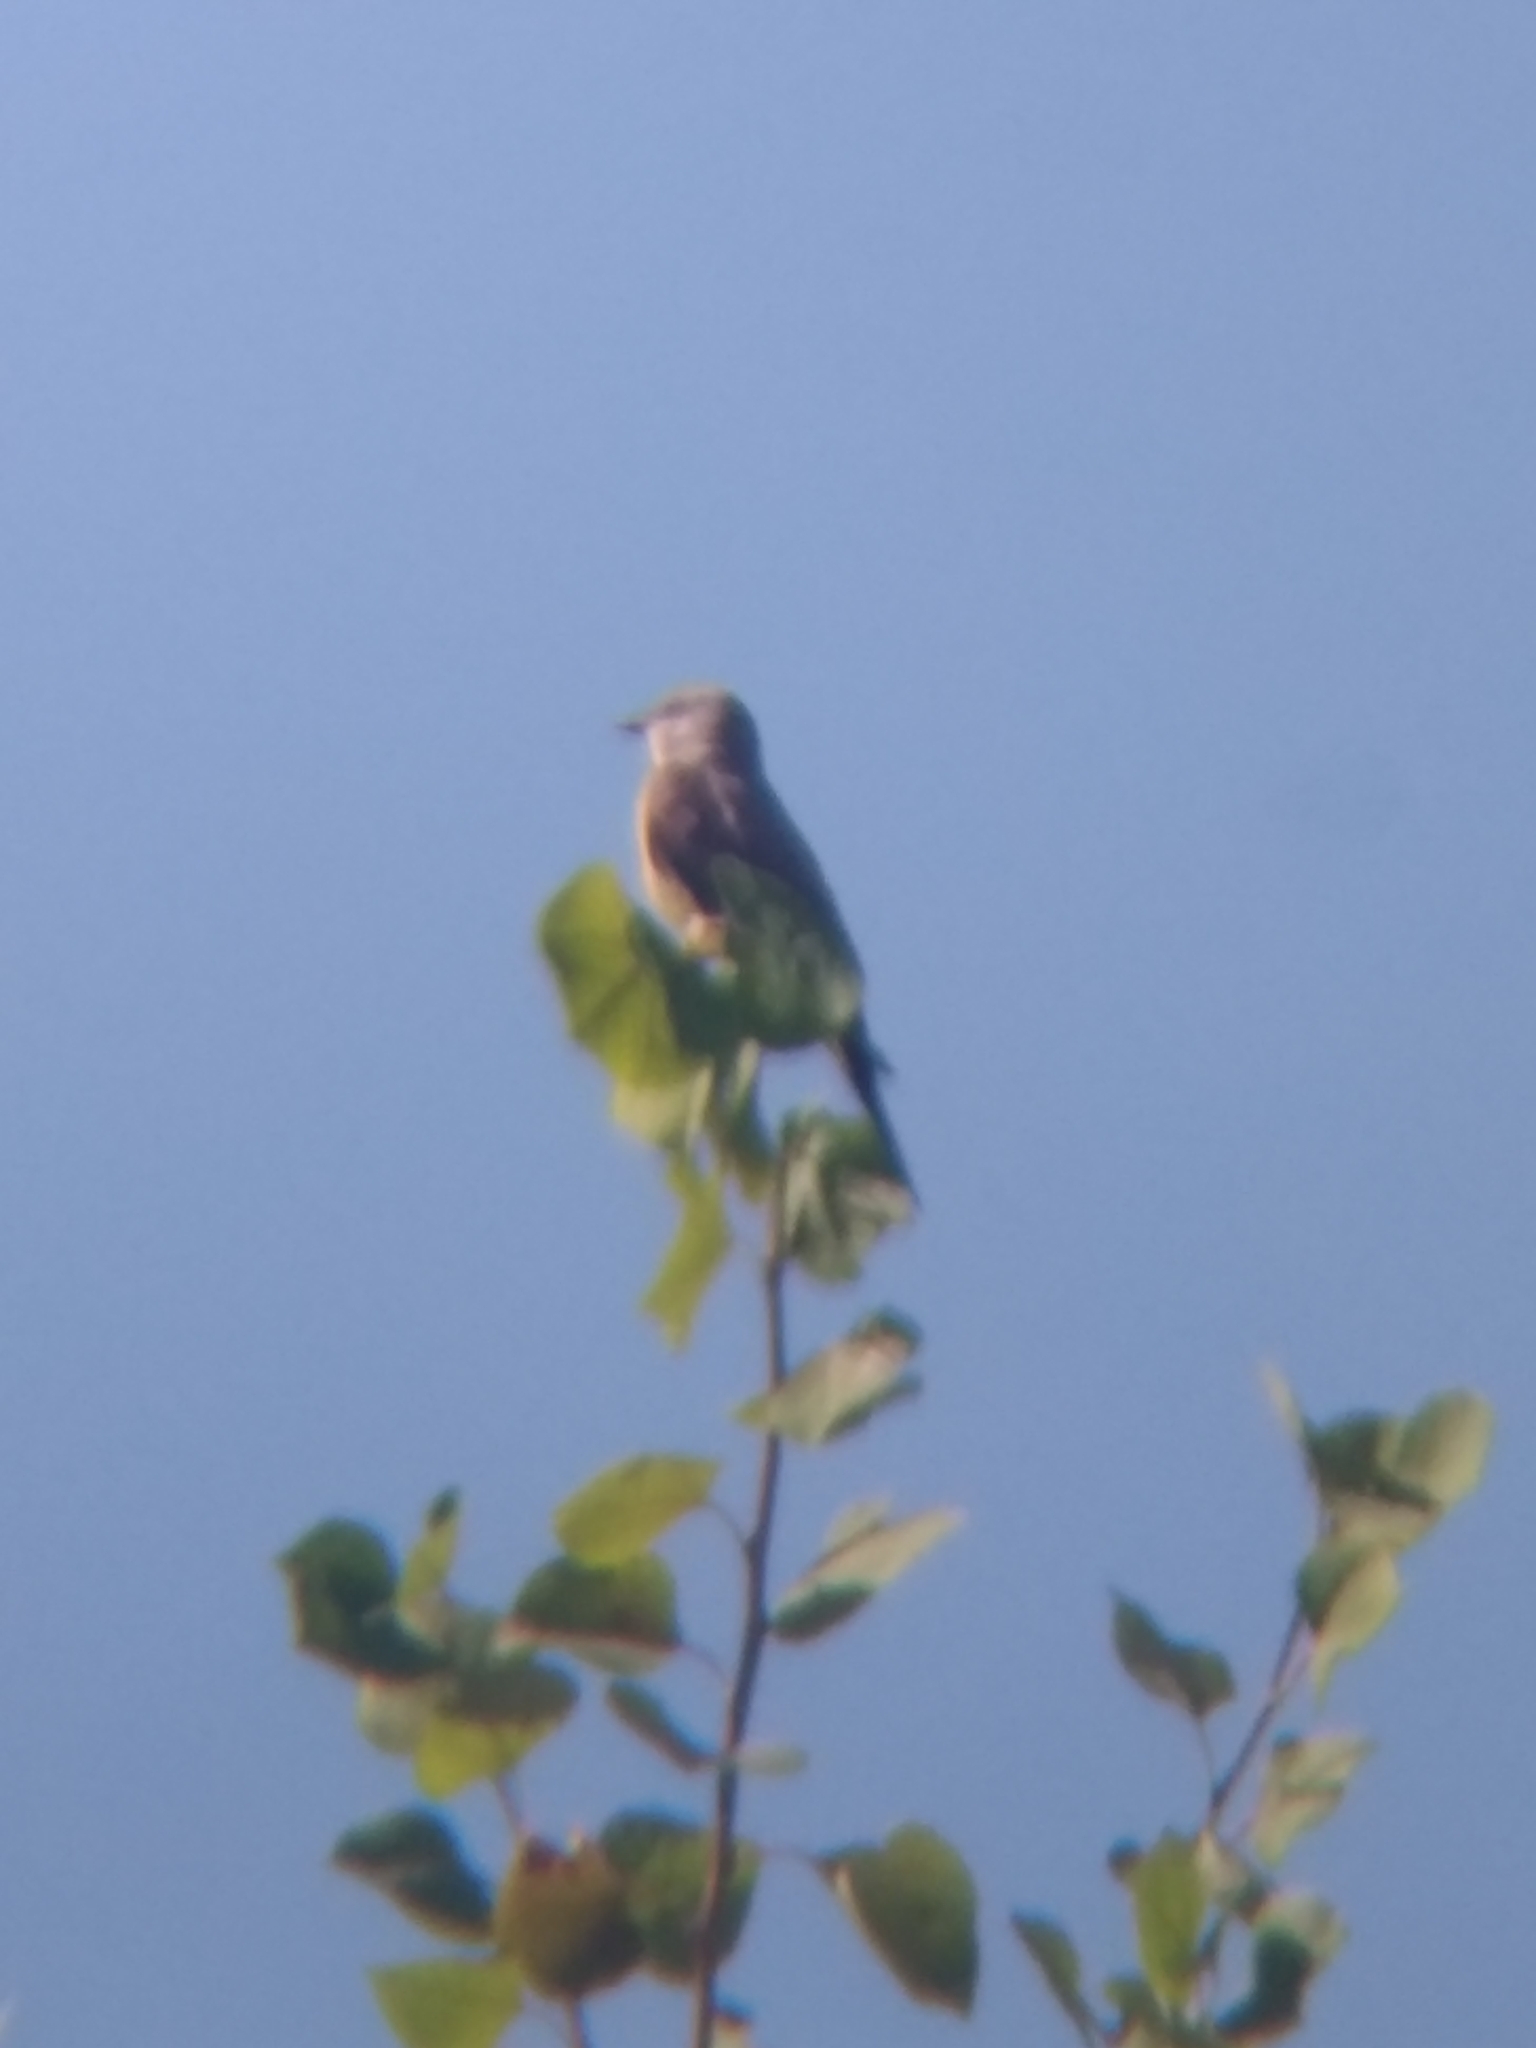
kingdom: Animalia
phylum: Chordata
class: Aves
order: Passeriformes
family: Tyrannidae
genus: Tyrannus
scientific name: Tyrannus verticalis
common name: Western kingbird
